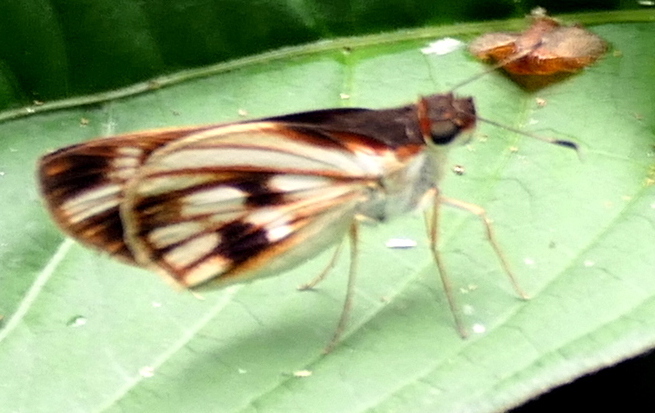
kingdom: Animalia
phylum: Arthropoda
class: Insecta
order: Lepidoptera
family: Hesperiidae
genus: Troyus
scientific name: Troyus fantasos
